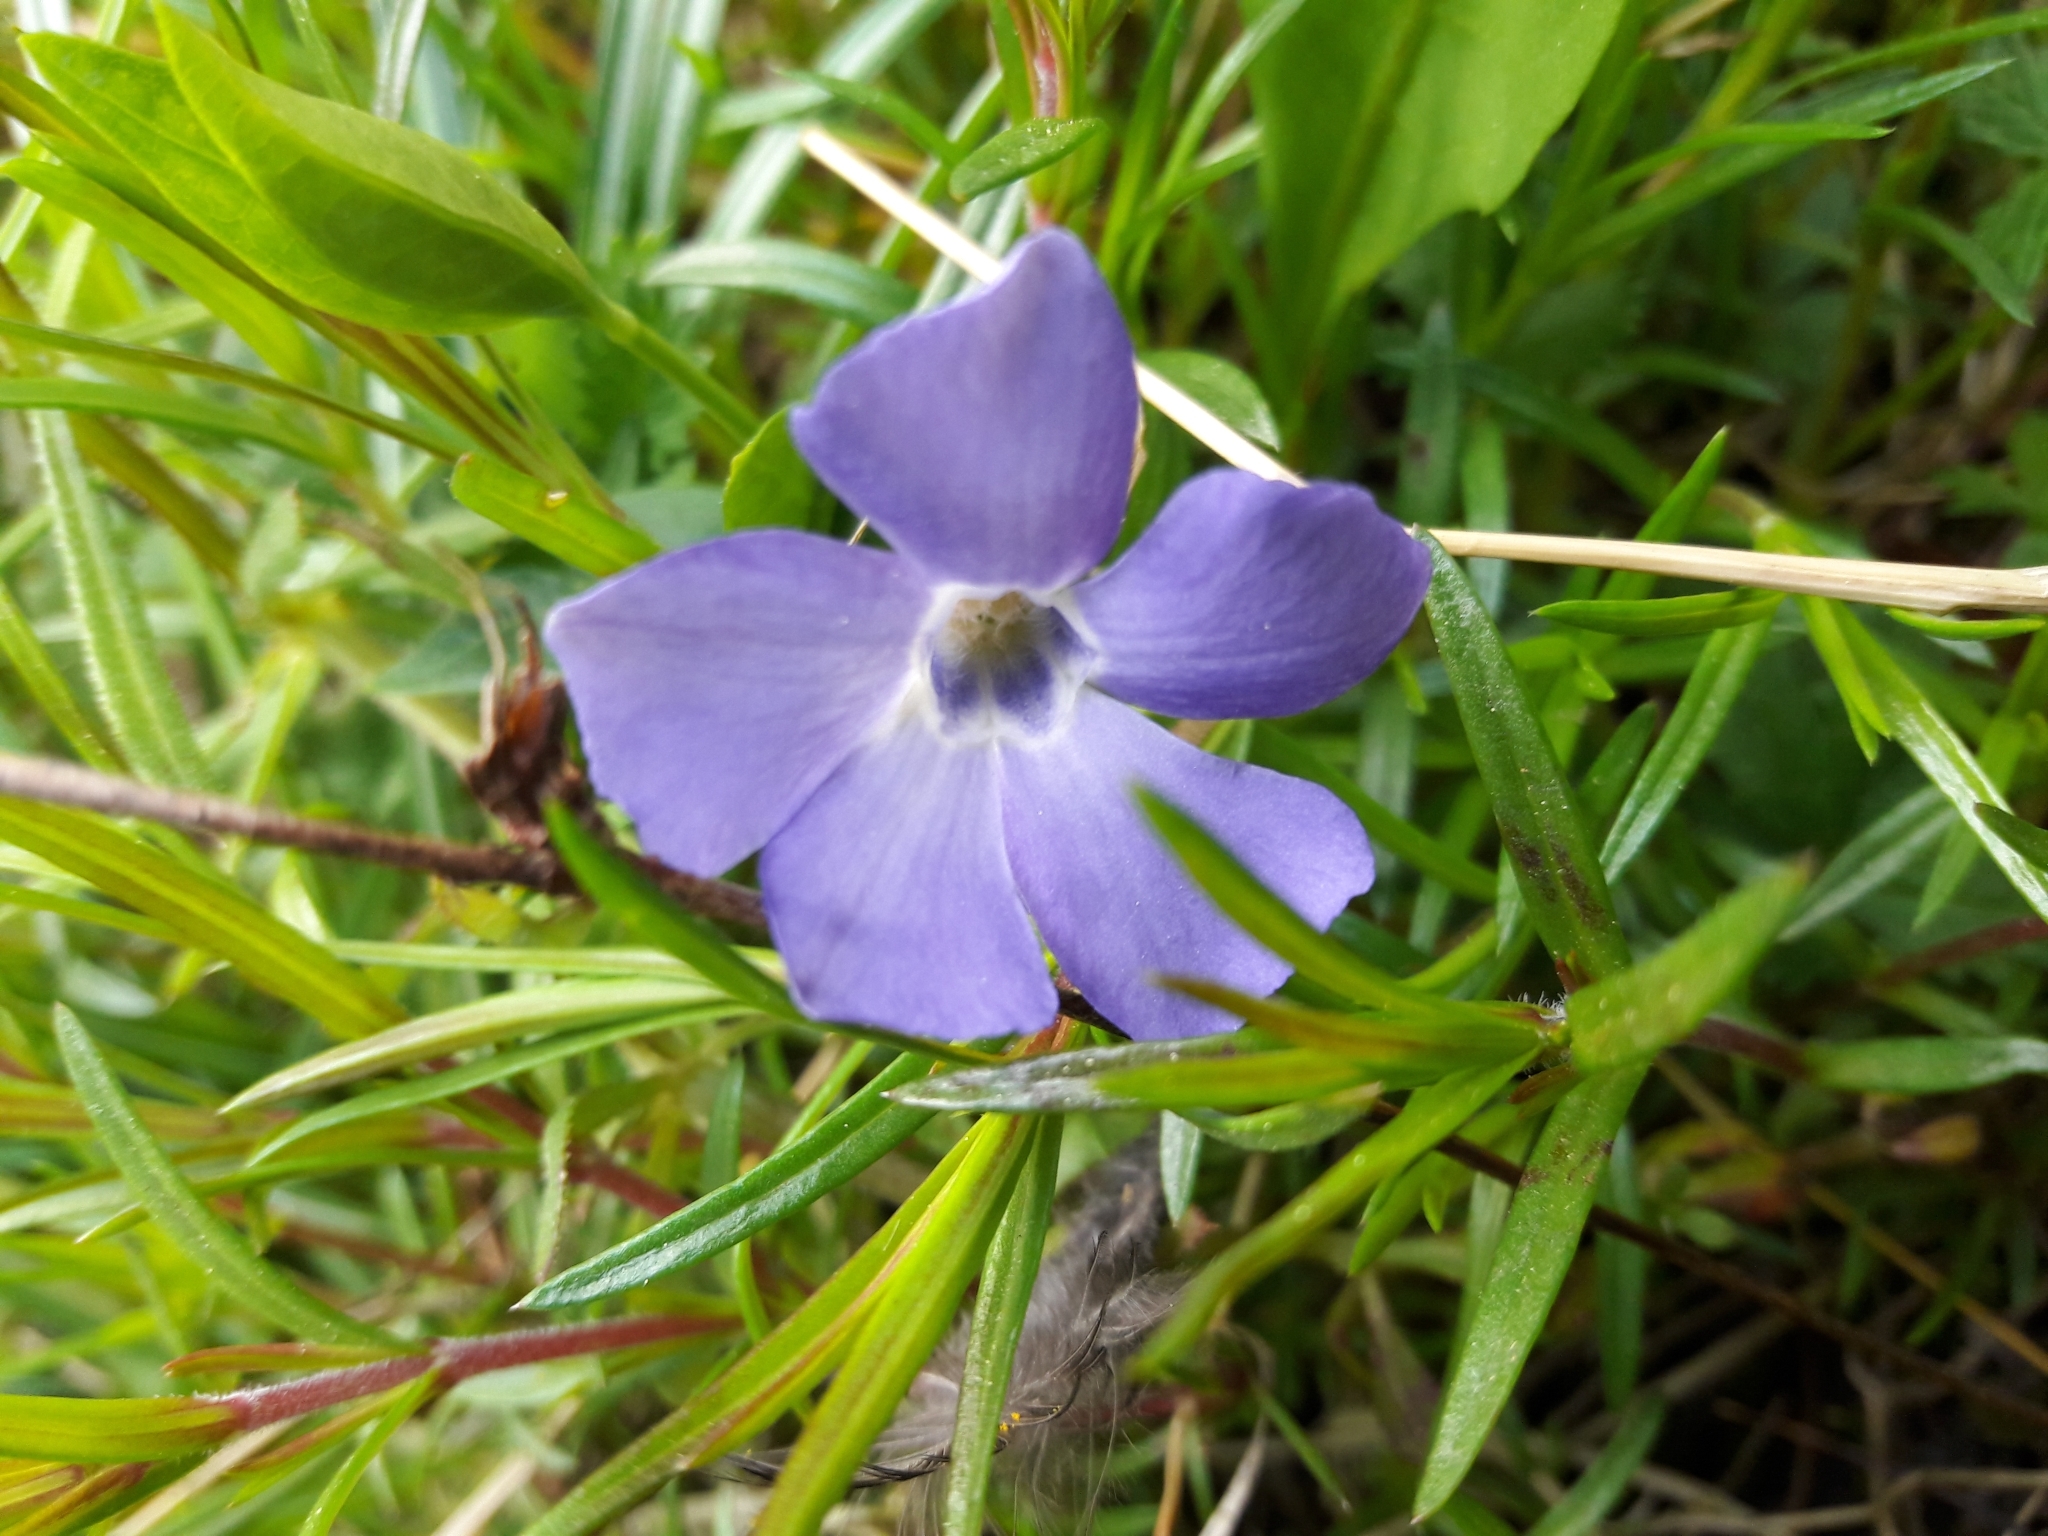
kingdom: Plantae
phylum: Tracheophyta
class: Magnoliopsida
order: Gentianales
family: Apocynaceae
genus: Vinca
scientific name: Vinca minor
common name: Lesser periwinkle
